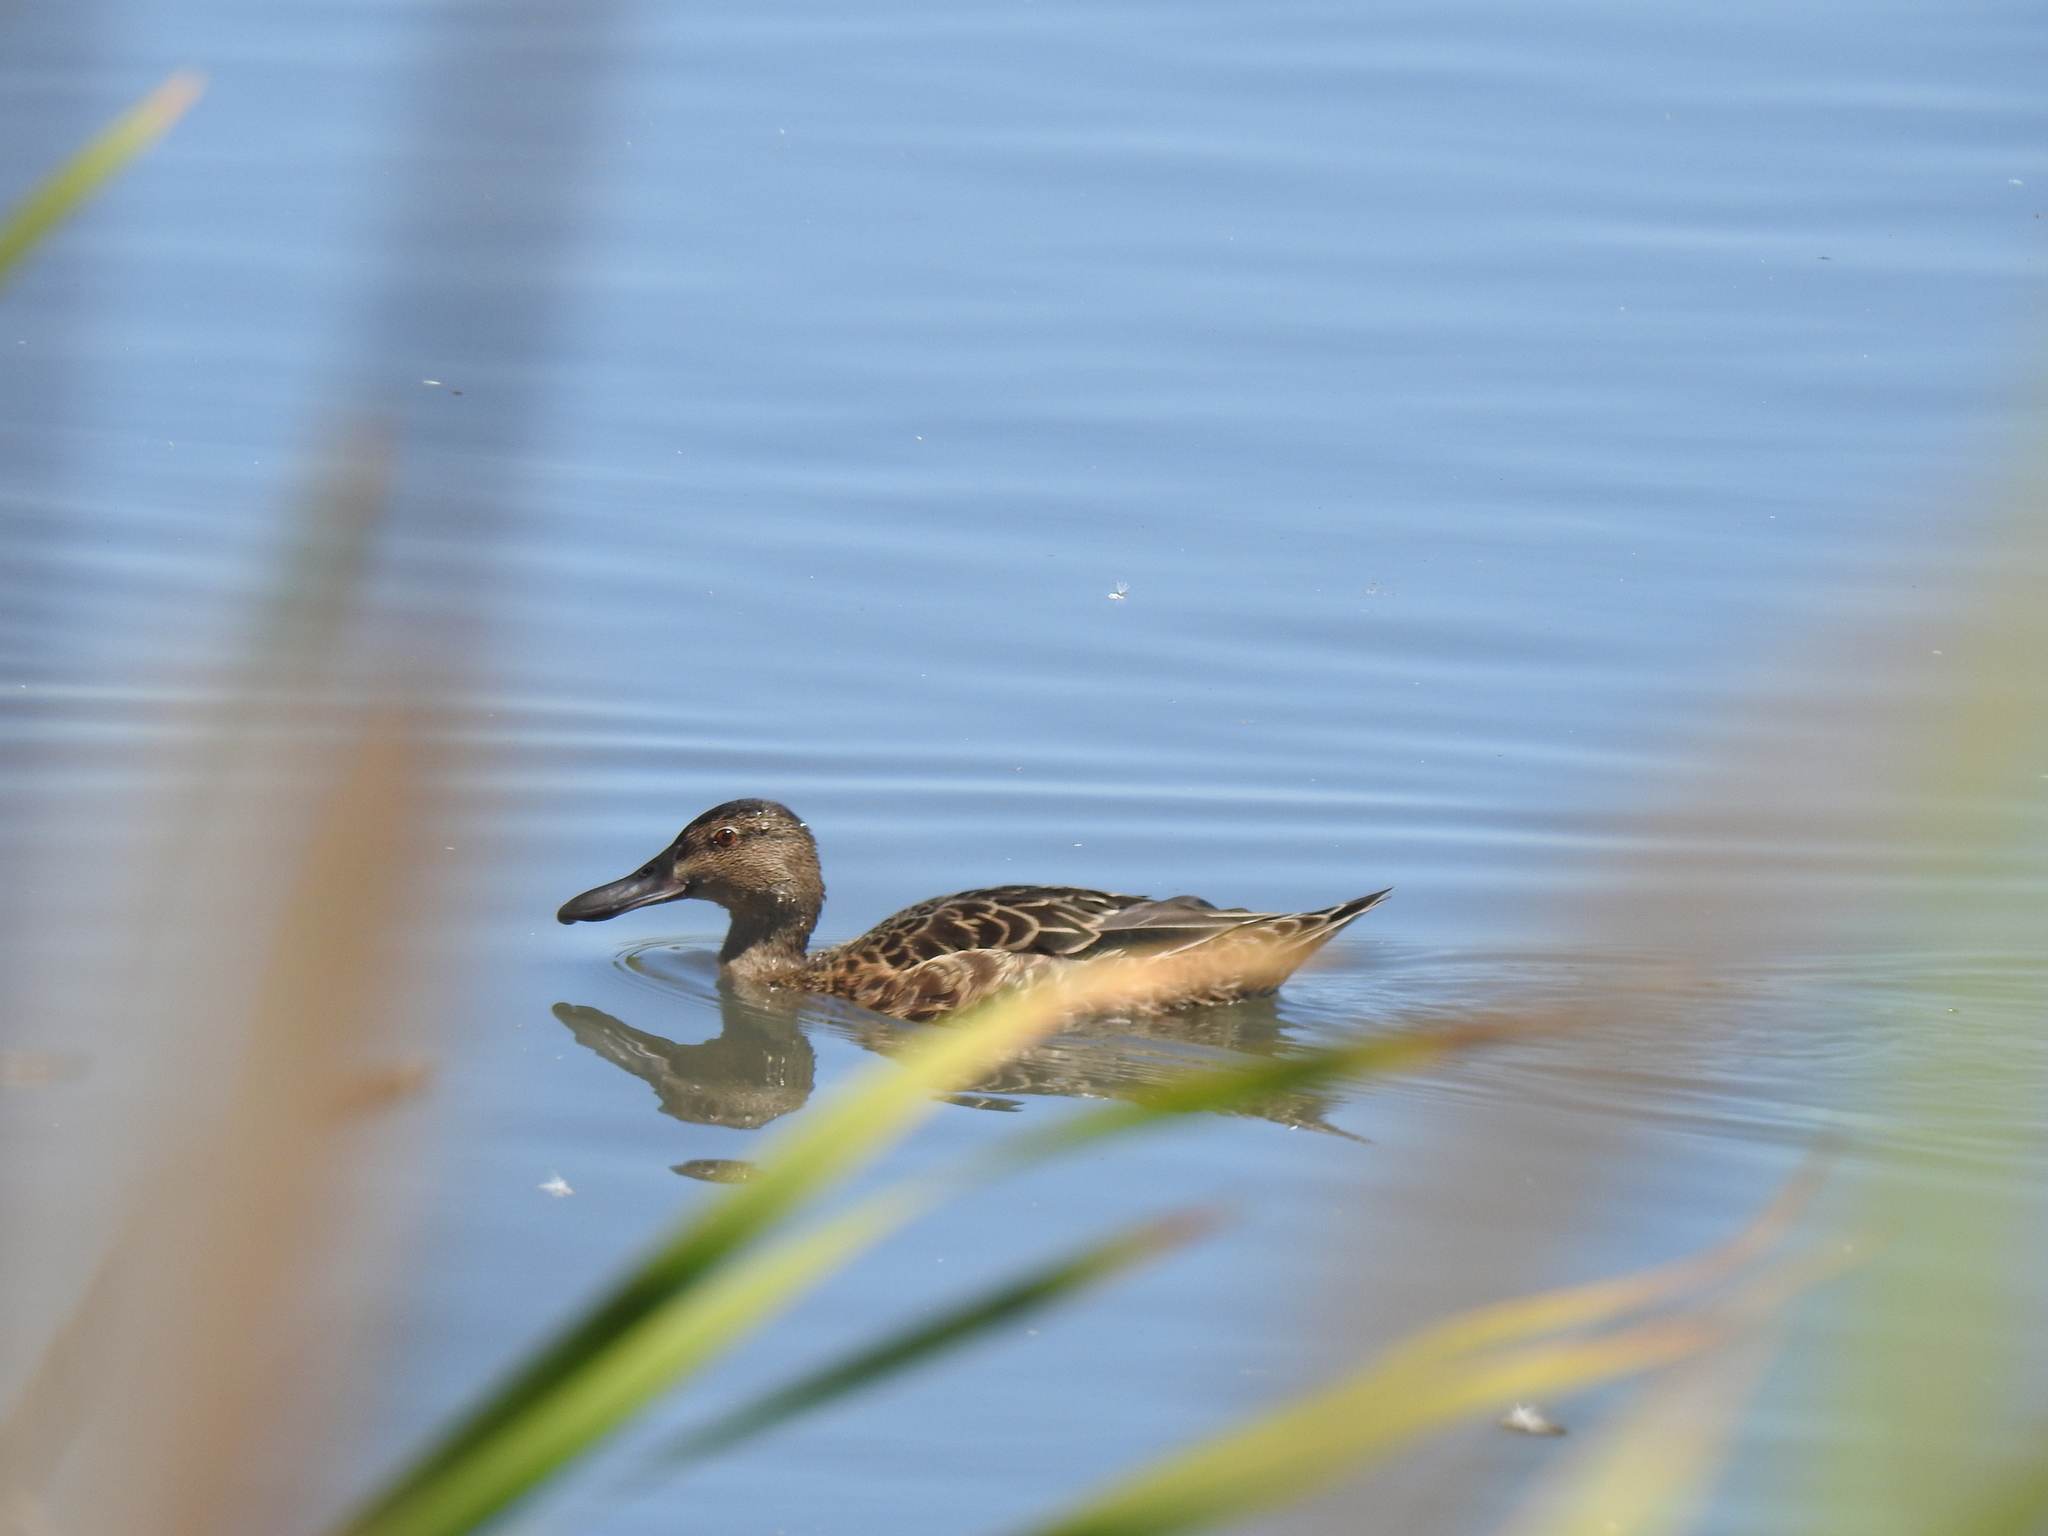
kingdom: Animalia
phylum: Chordata
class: Aves
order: Anseriformes
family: Anatidae
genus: Spatula
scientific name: Spatula clypeata
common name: Northern shoveler
